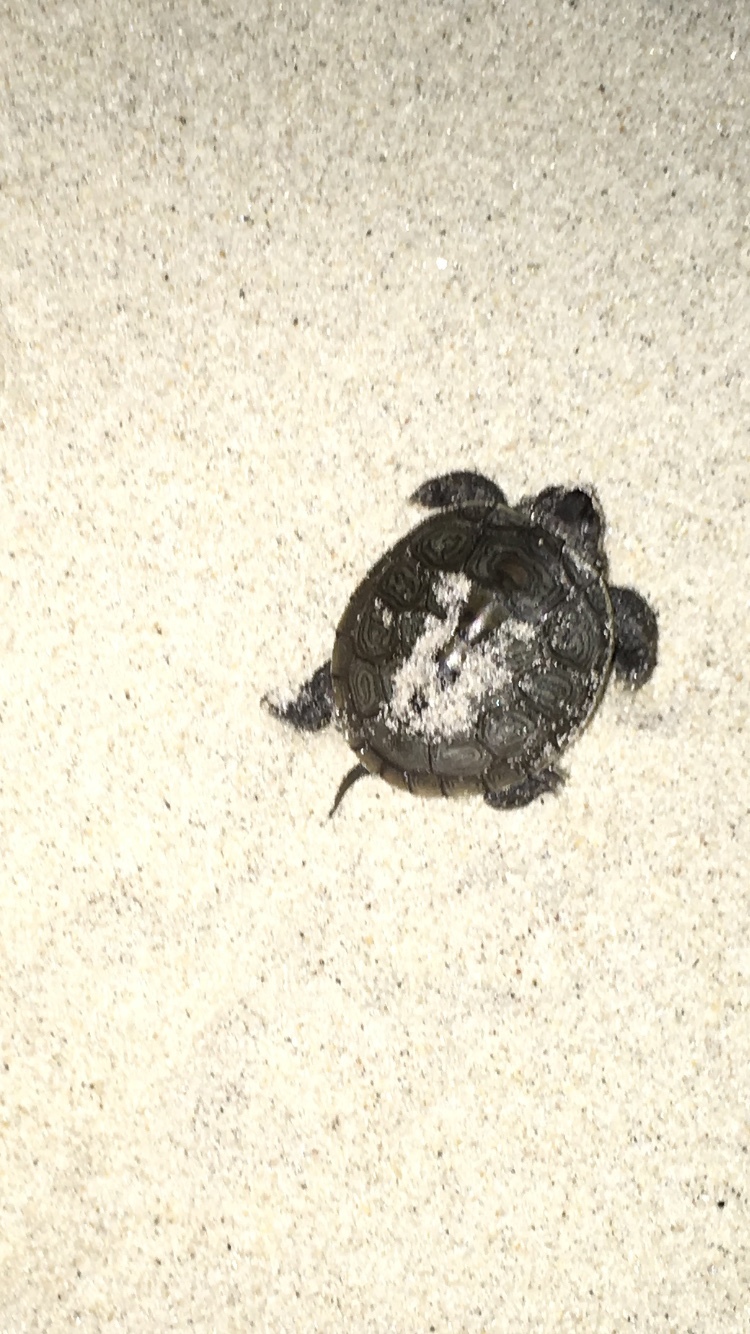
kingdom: Animalia
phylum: Chordata
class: Testudines
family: Emydidae
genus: Malaclemys
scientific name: Malaclemys terrapin
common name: Diamondback terrapin
